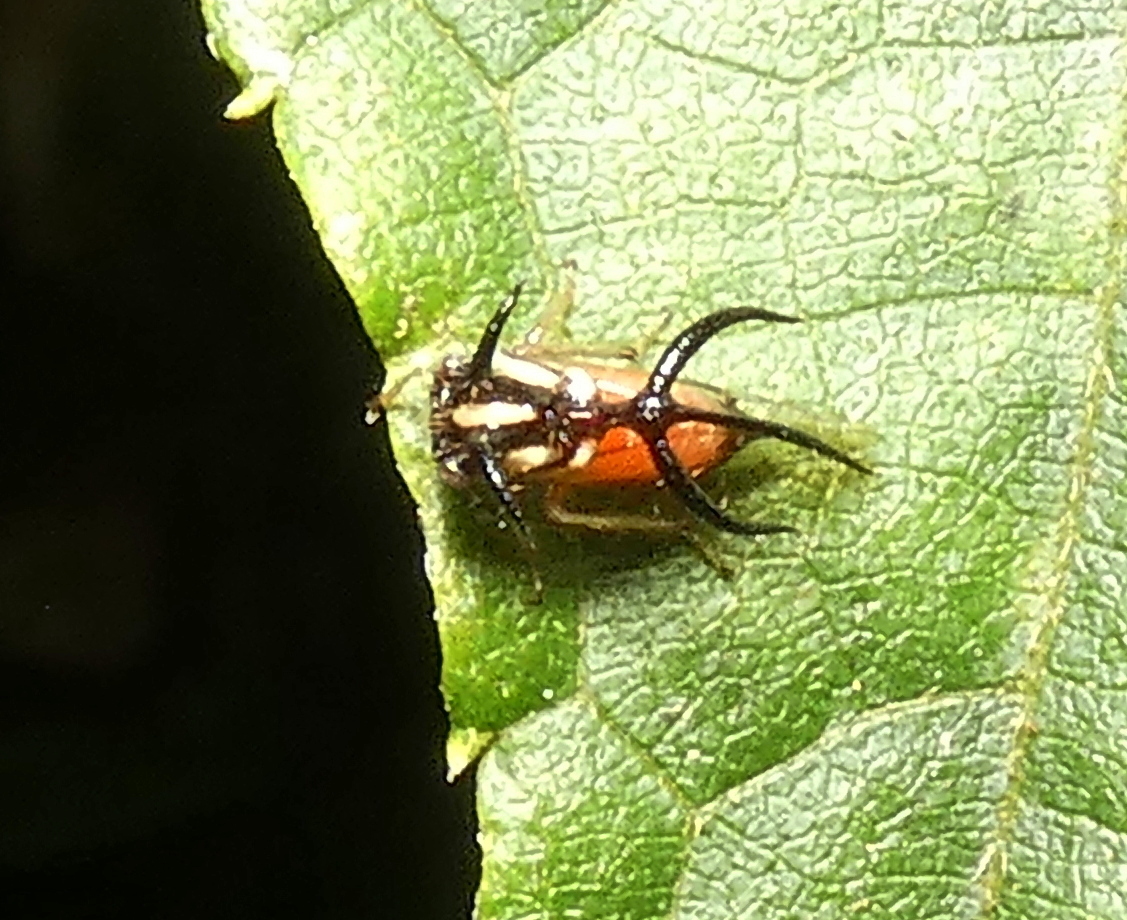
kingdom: Animalia
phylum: Arthropoda
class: Insecta
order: Hemiptera
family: Membracidae
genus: Cyphonia
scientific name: Cyphonia trifida
